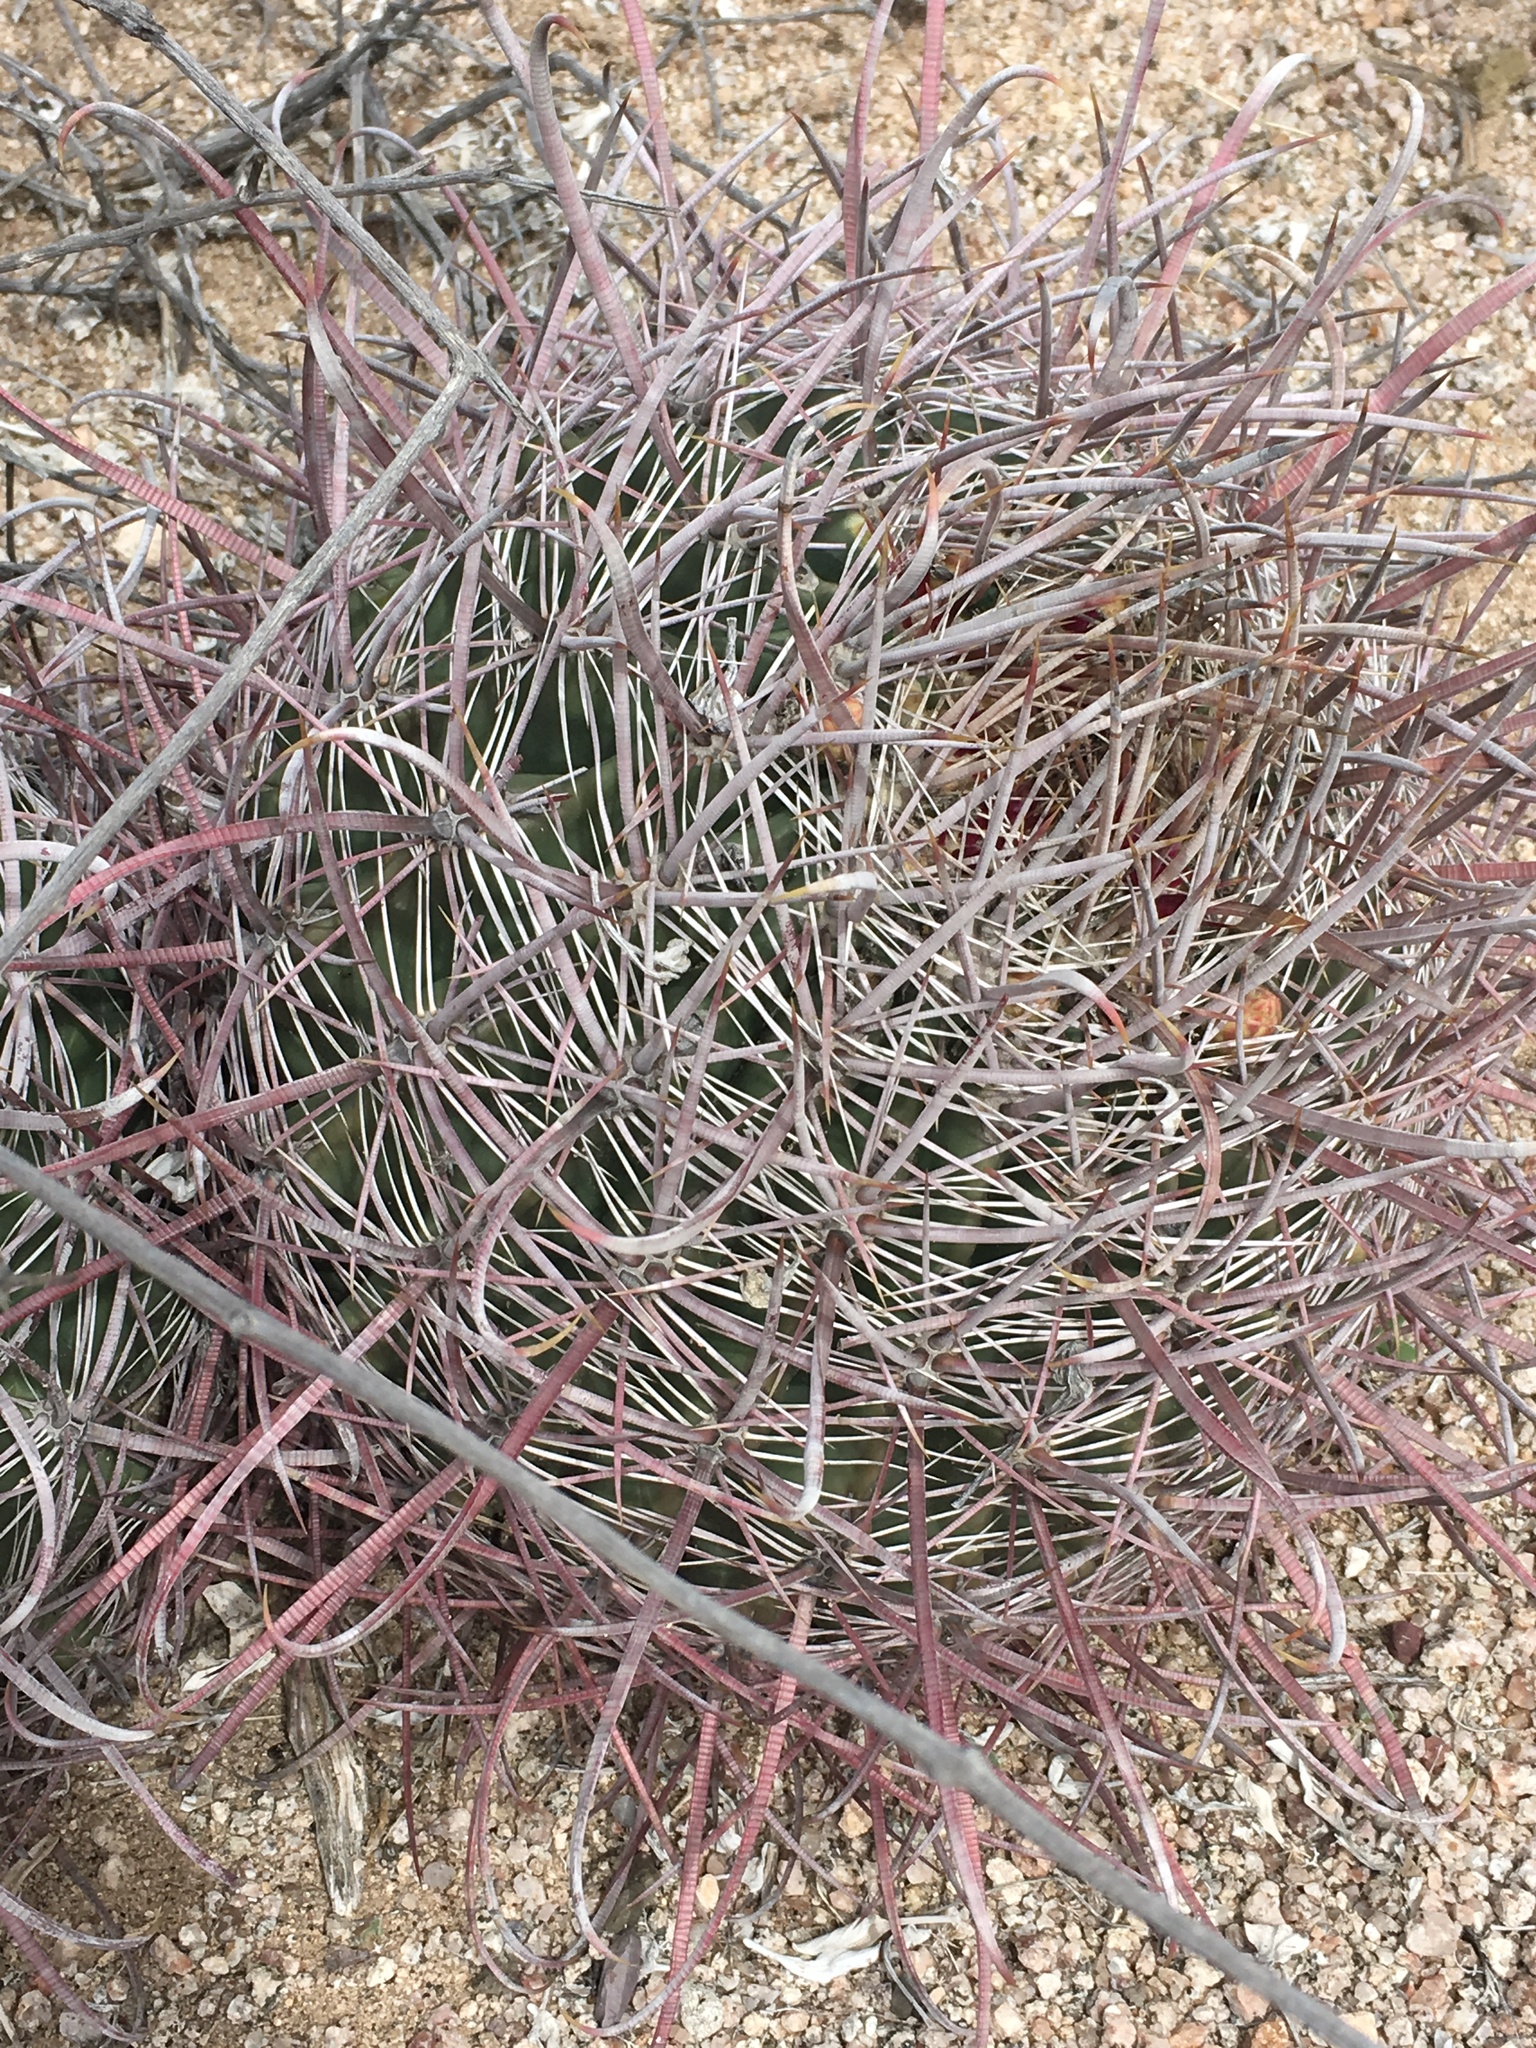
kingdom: Plantae
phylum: Tracheophyta
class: Magnoliopsida
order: Caryophyllales
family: Cactaceae
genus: Ferocactus
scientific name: Ferocactus cylindraceus
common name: California barrel cactus
